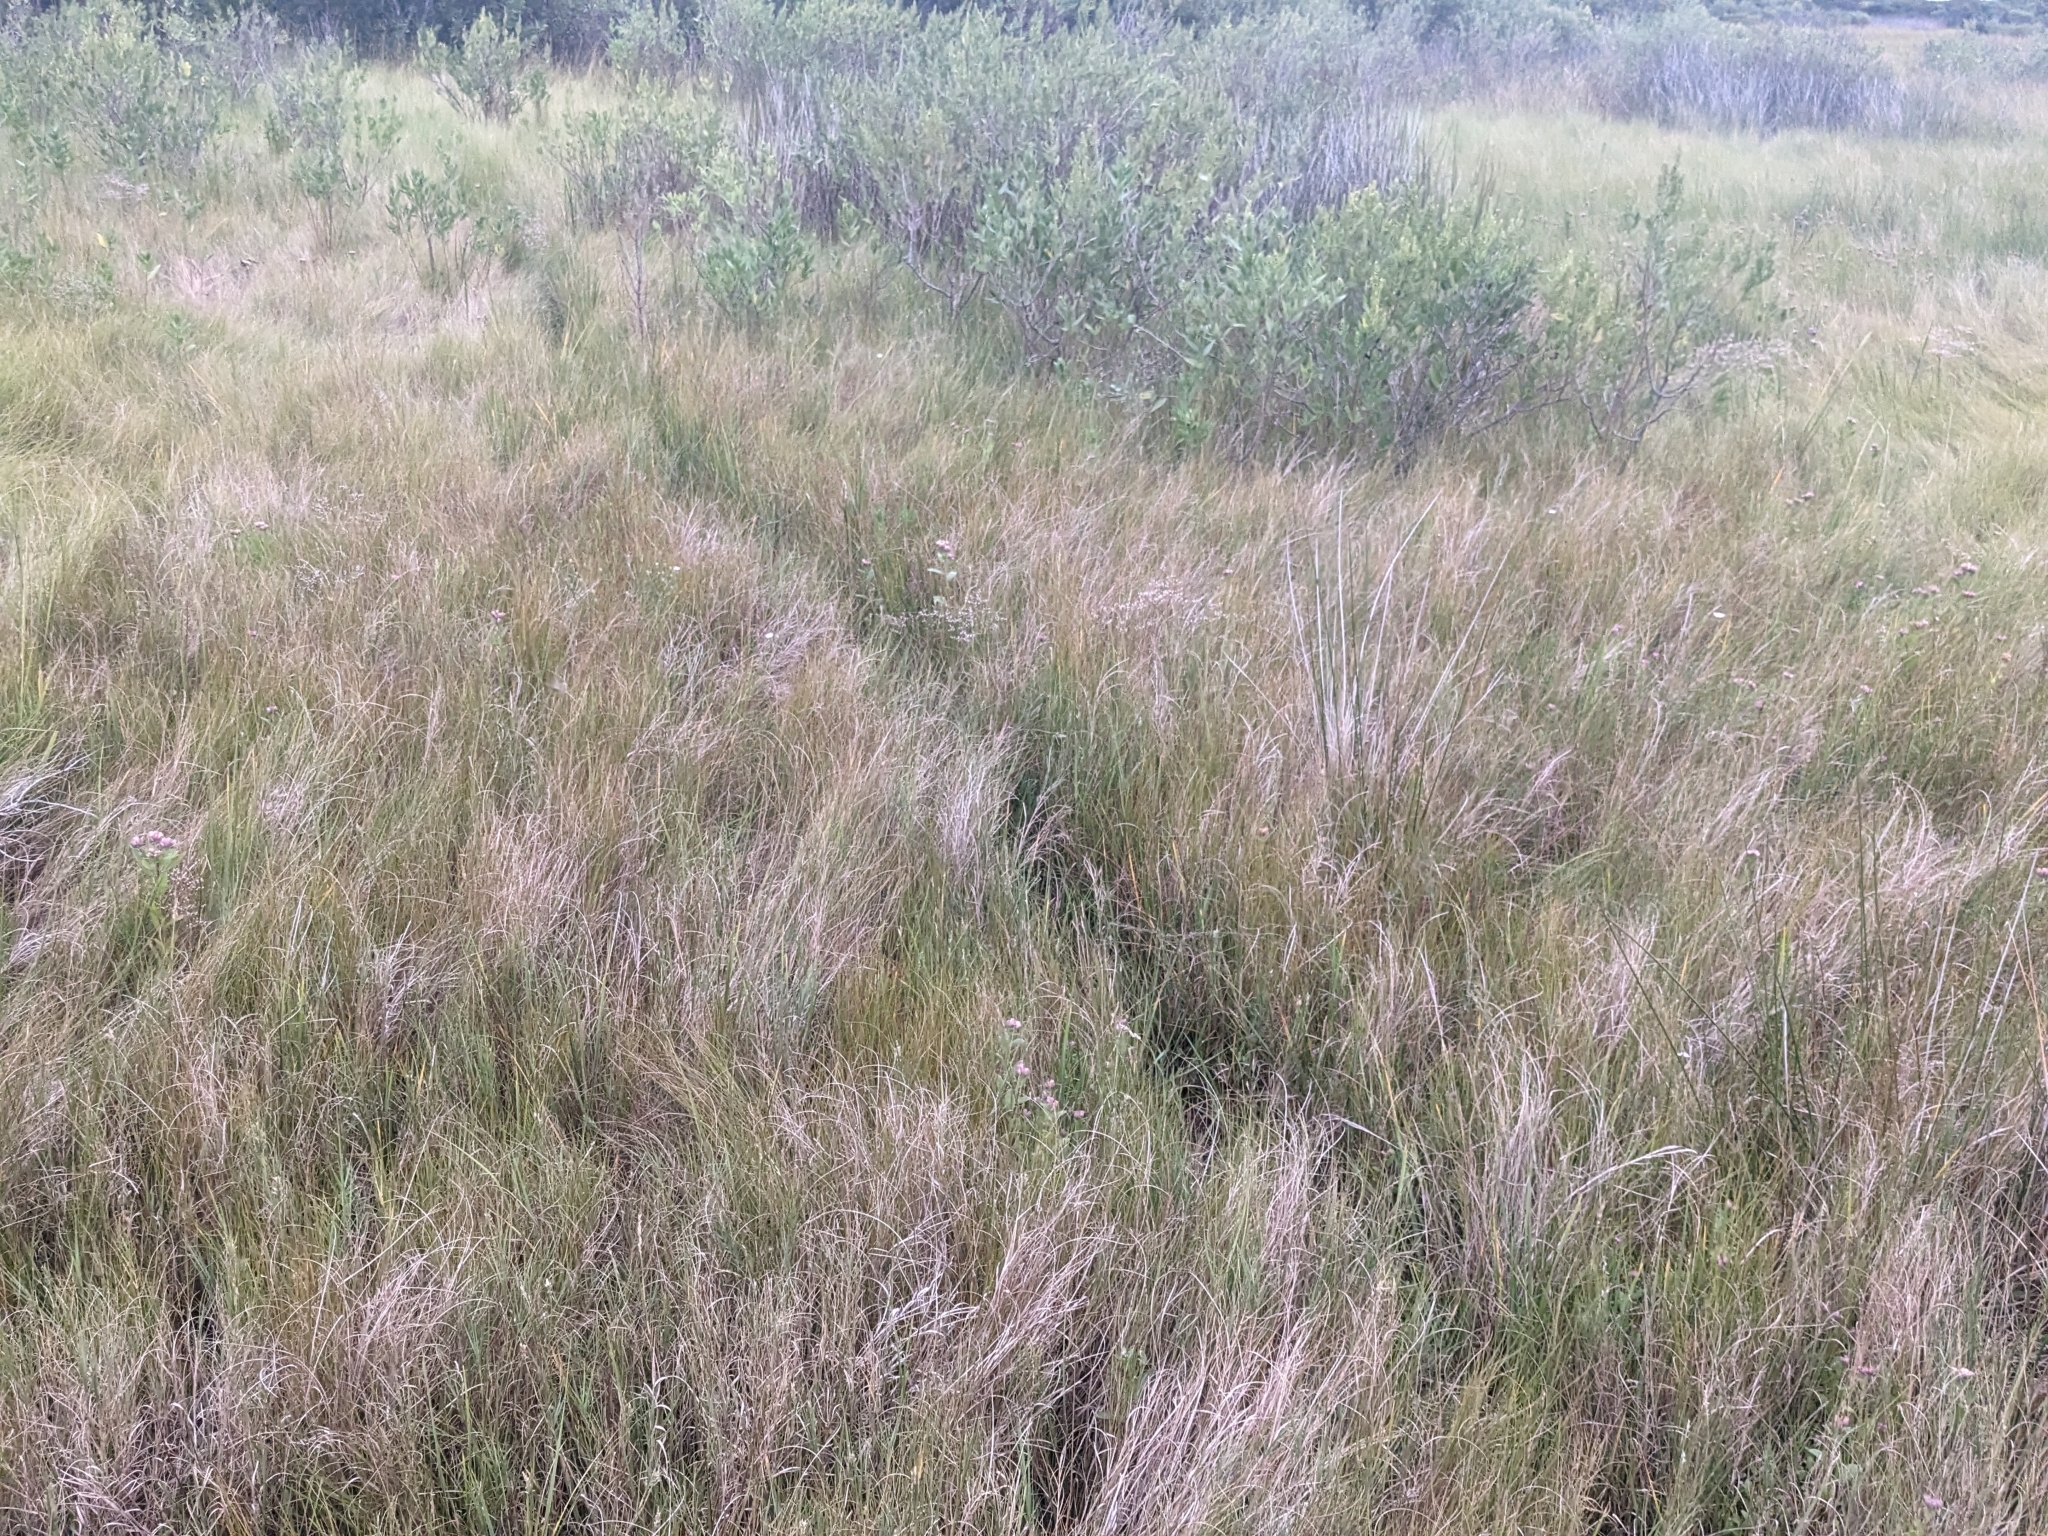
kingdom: Plantae
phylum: Tracheophyta
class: Liliopsida
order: Poales
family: Poaceae
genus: Distichlis
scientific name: Distichlis spicata
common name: Saltgrass
